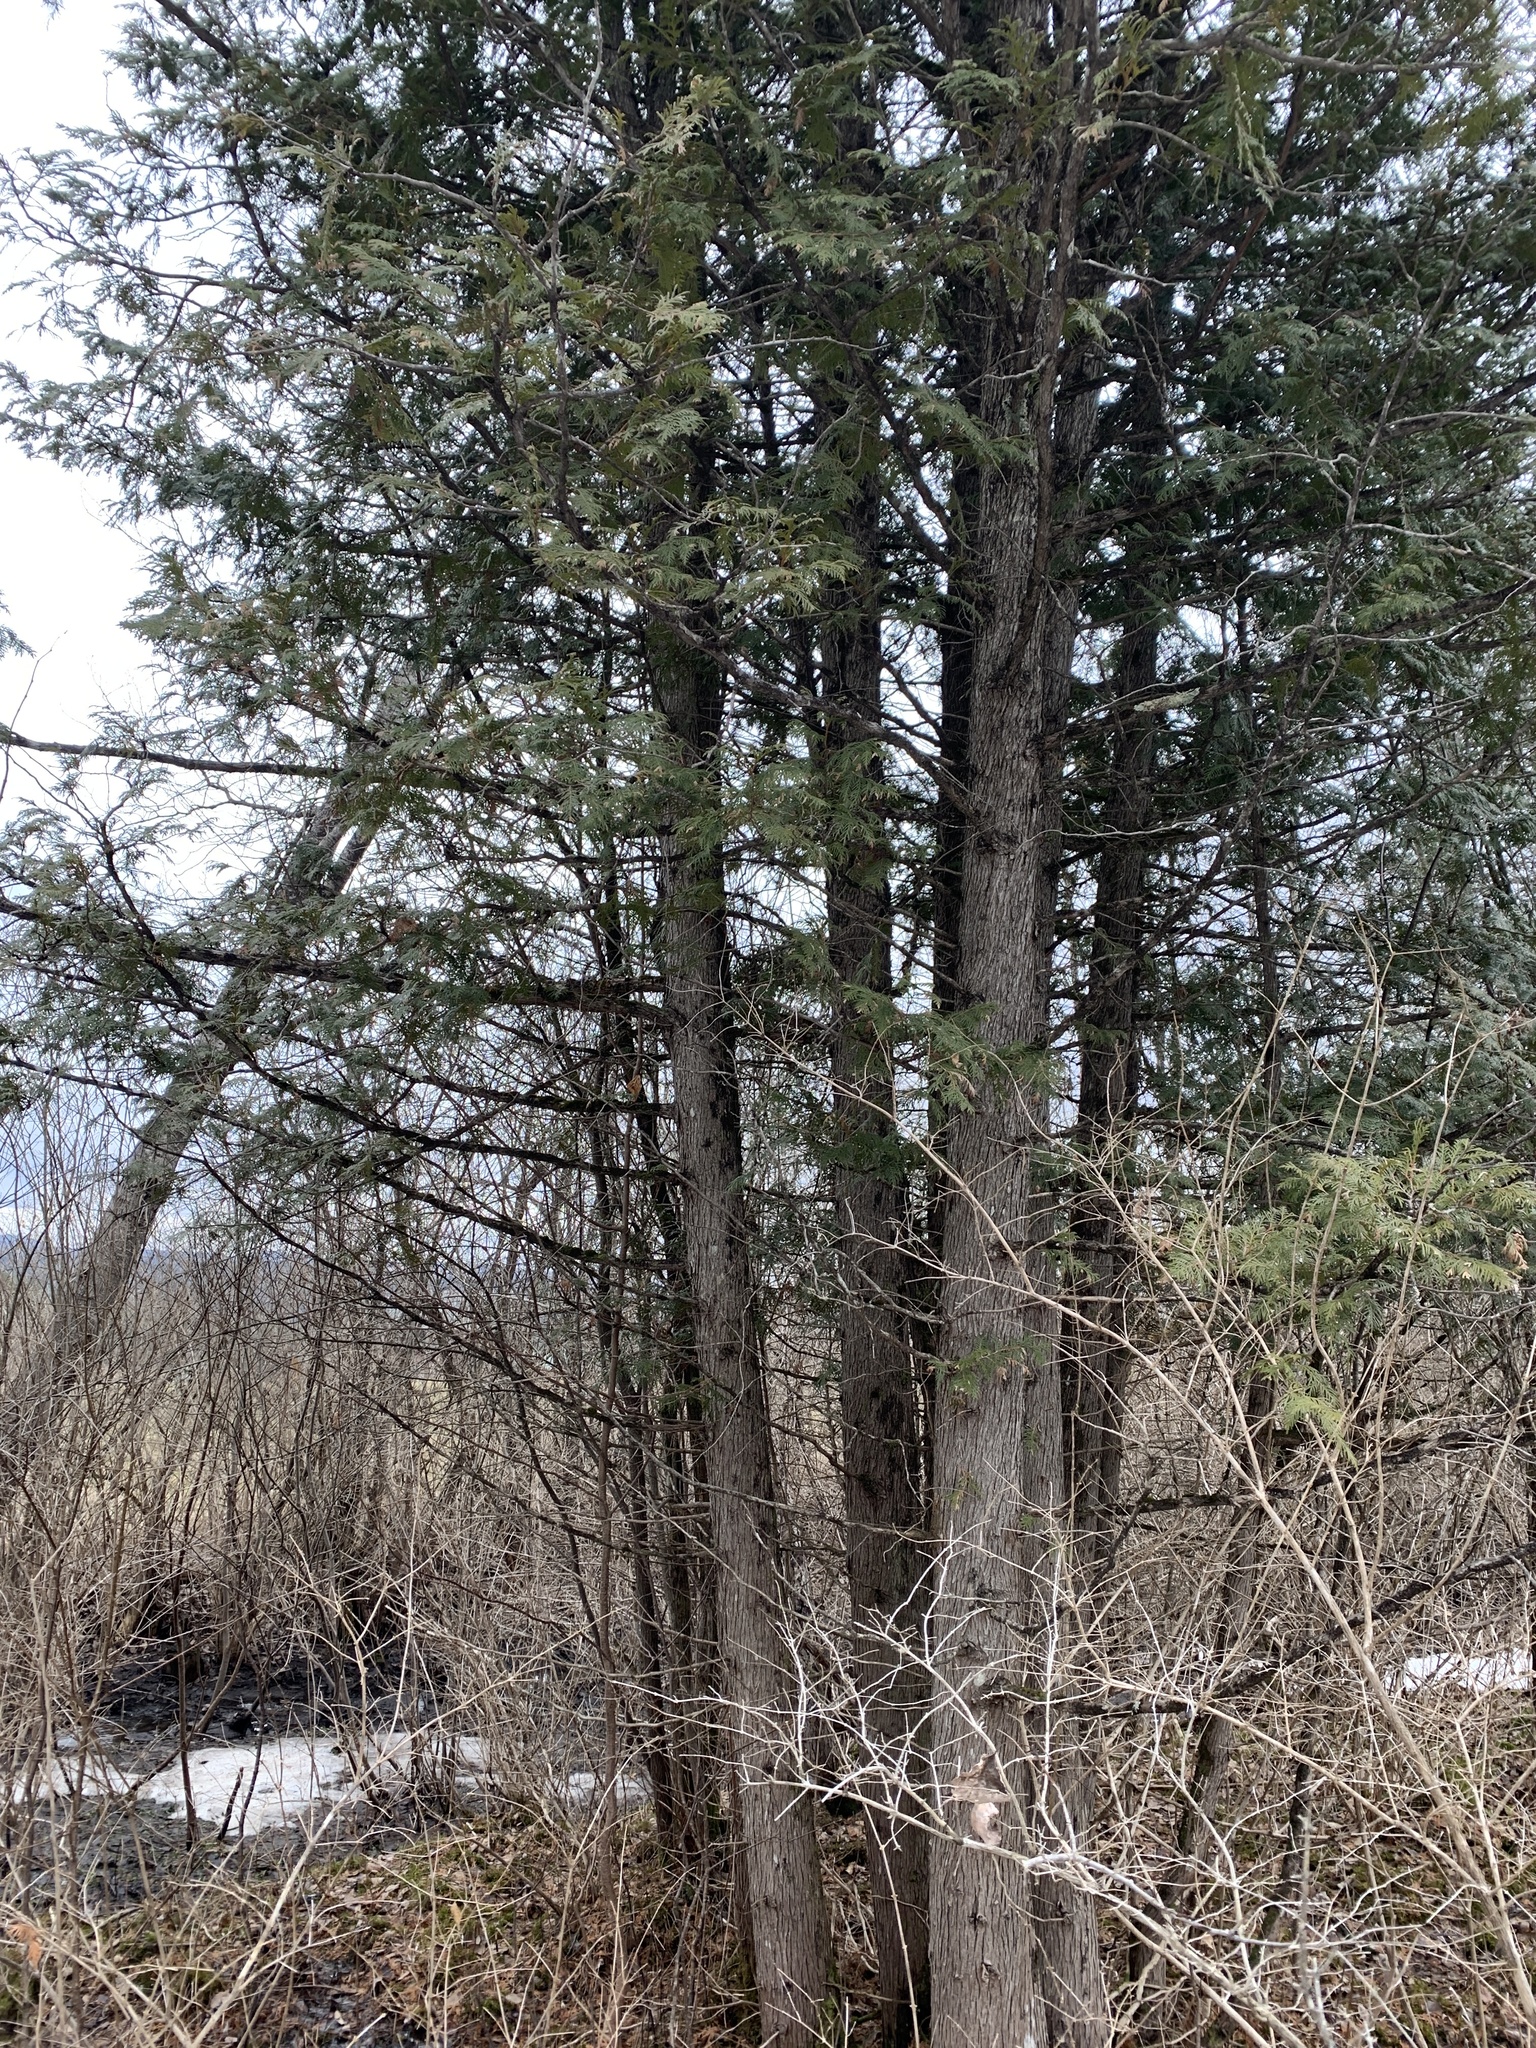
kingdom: Plantae
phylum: Tracheophyta
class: Pinopsida
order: Pinales
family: Cupressaceae
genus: Thuja
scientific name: Thuja occidentalis
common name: Northern white-cedar
